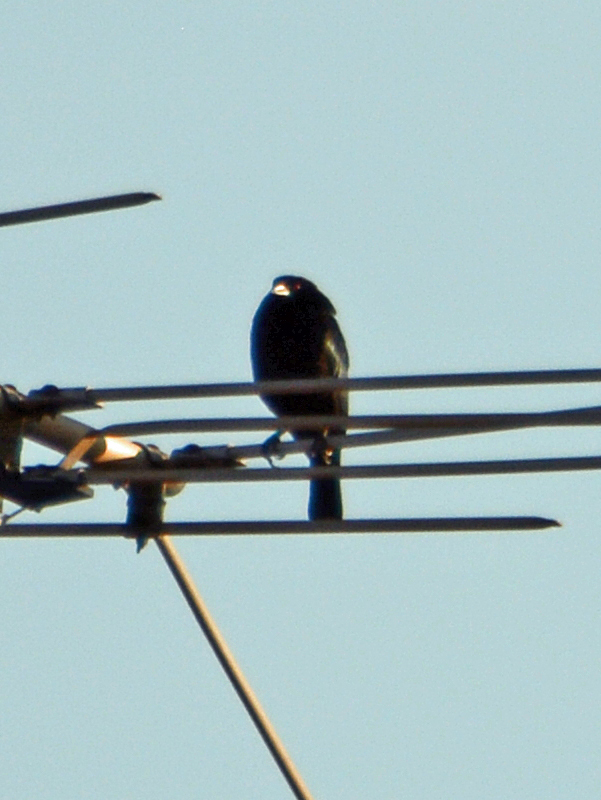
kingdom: Animalia
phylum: Chordata
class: Aves
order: Passeriformes
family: Icteridae
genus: Molothrus
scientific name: Molothrus aeneus
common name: Bronzed cowbird
